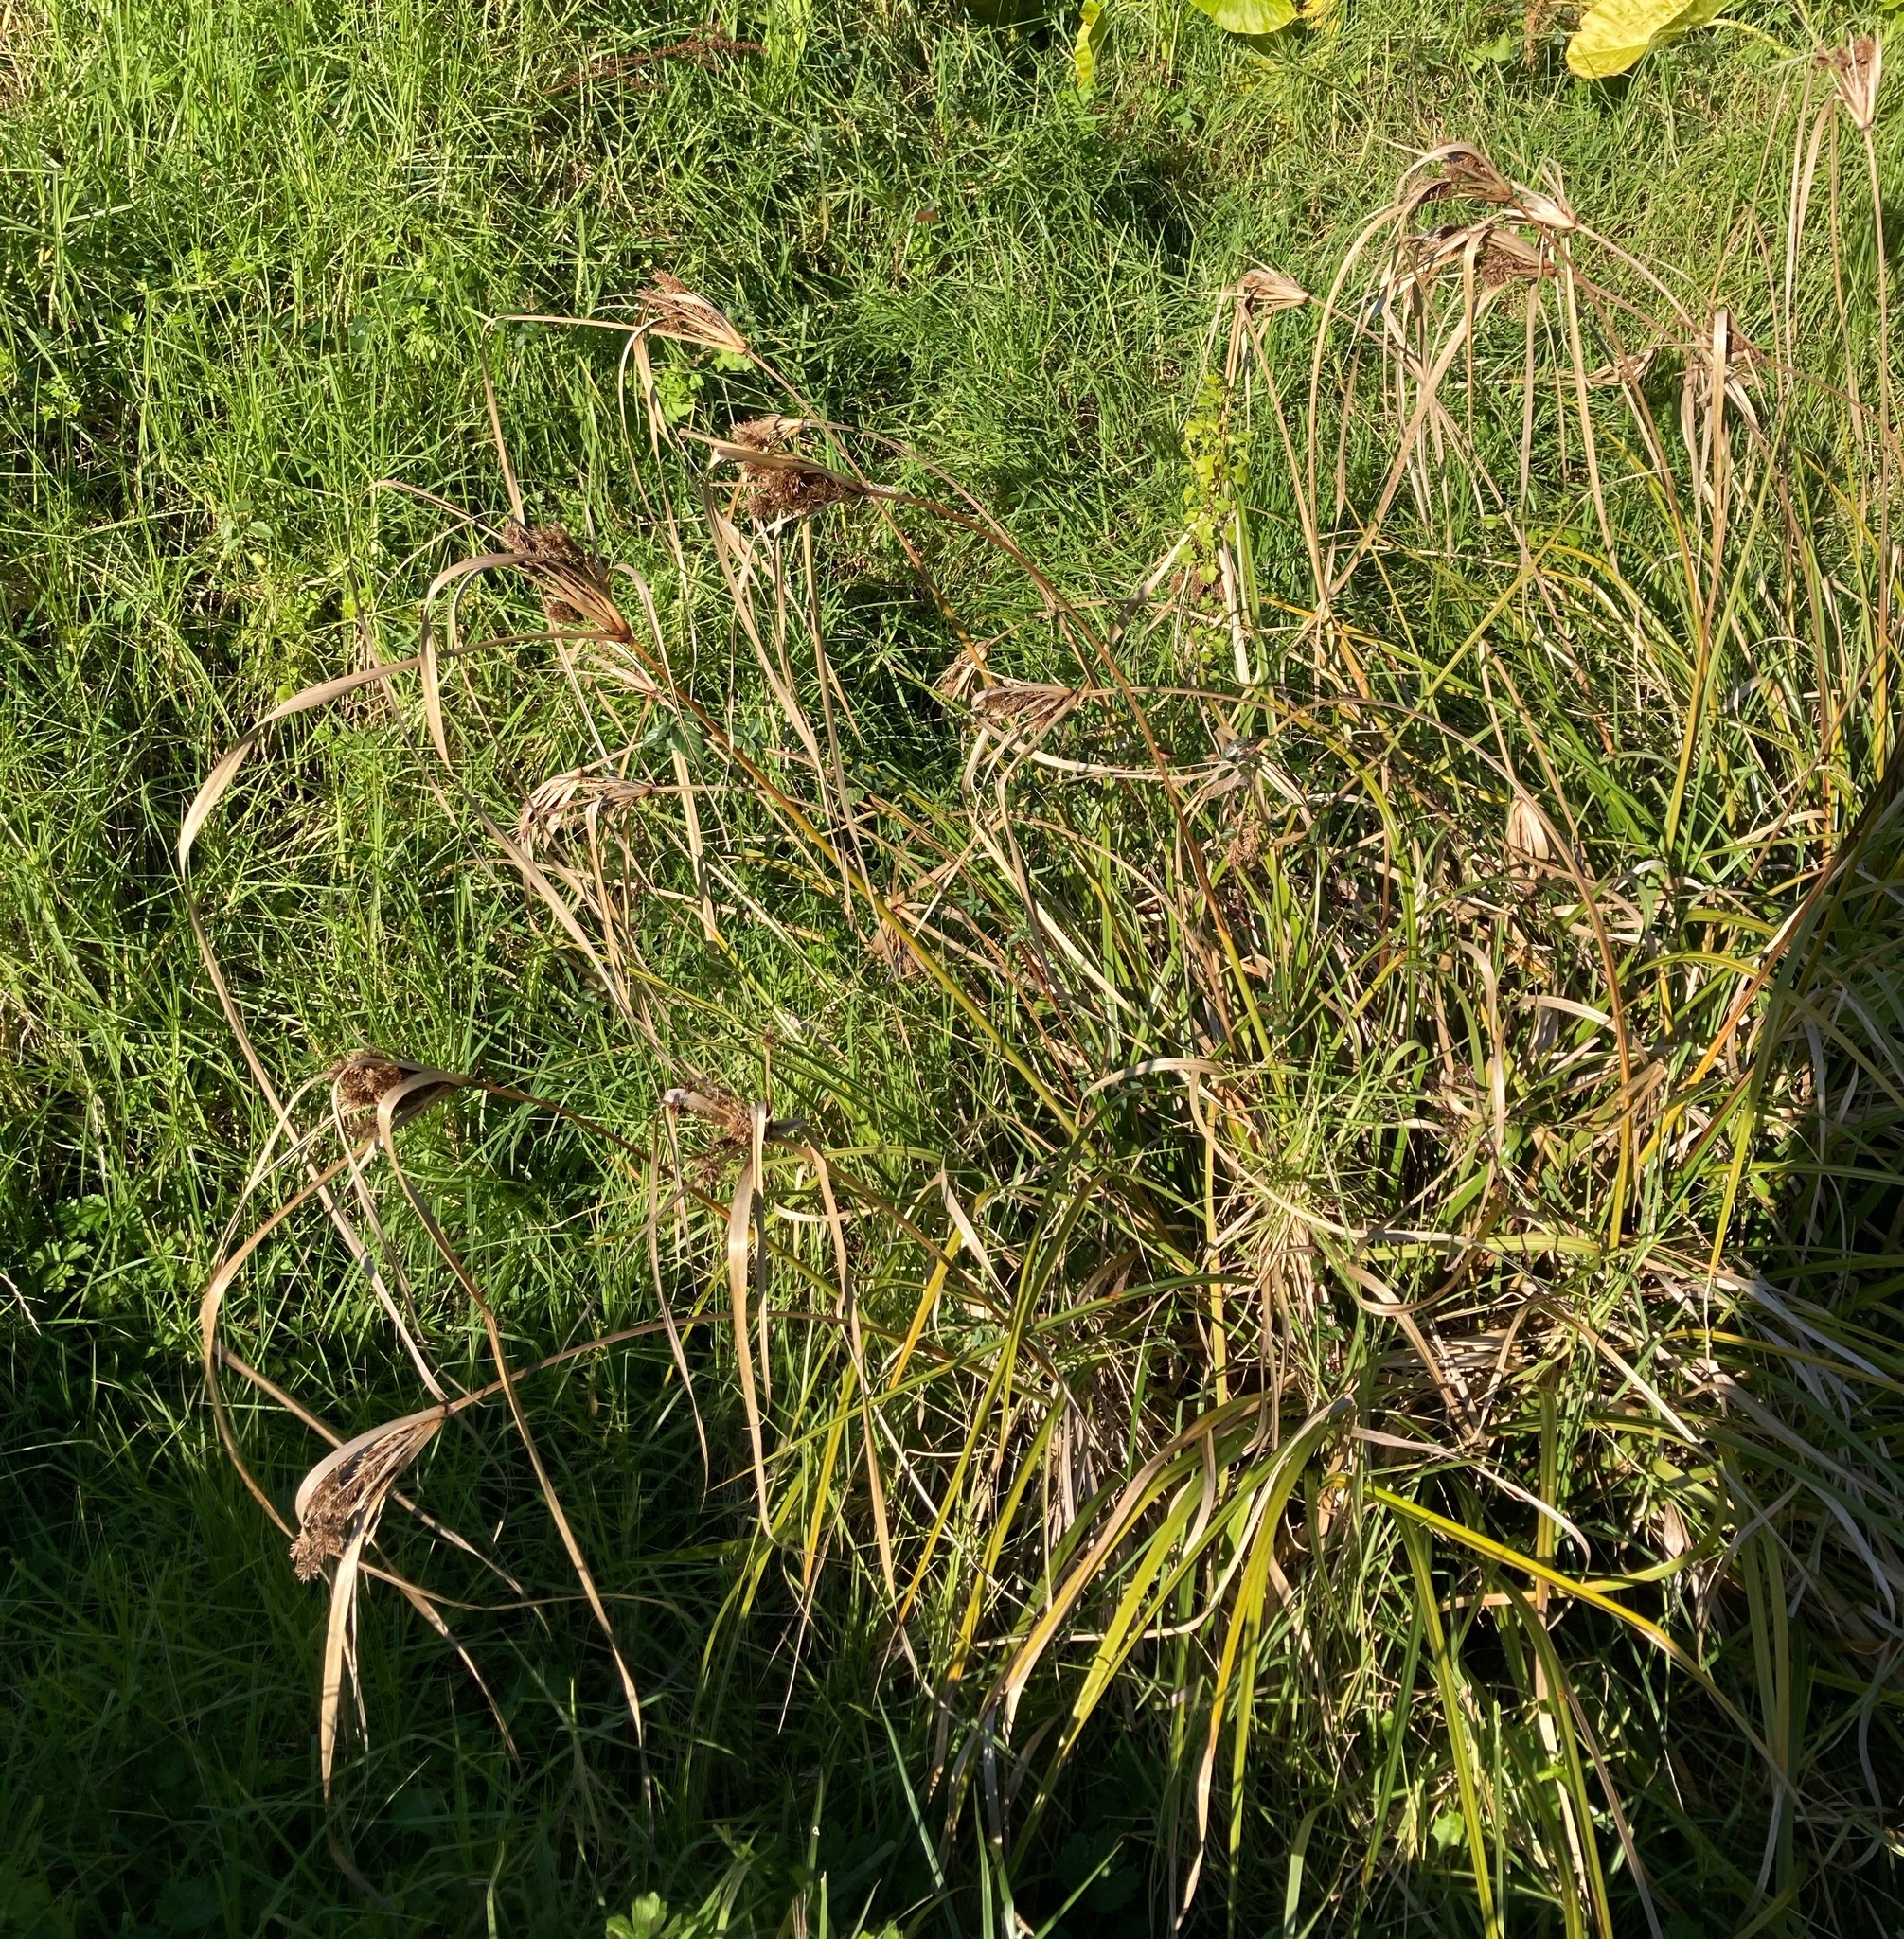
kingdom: Plantae
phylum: Tracheophyta
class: Liliopsida
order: Poales
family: Cyperaceae
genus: Cyperus
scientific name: Cyperus ustulatus
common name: Giant umbrella-sedge
